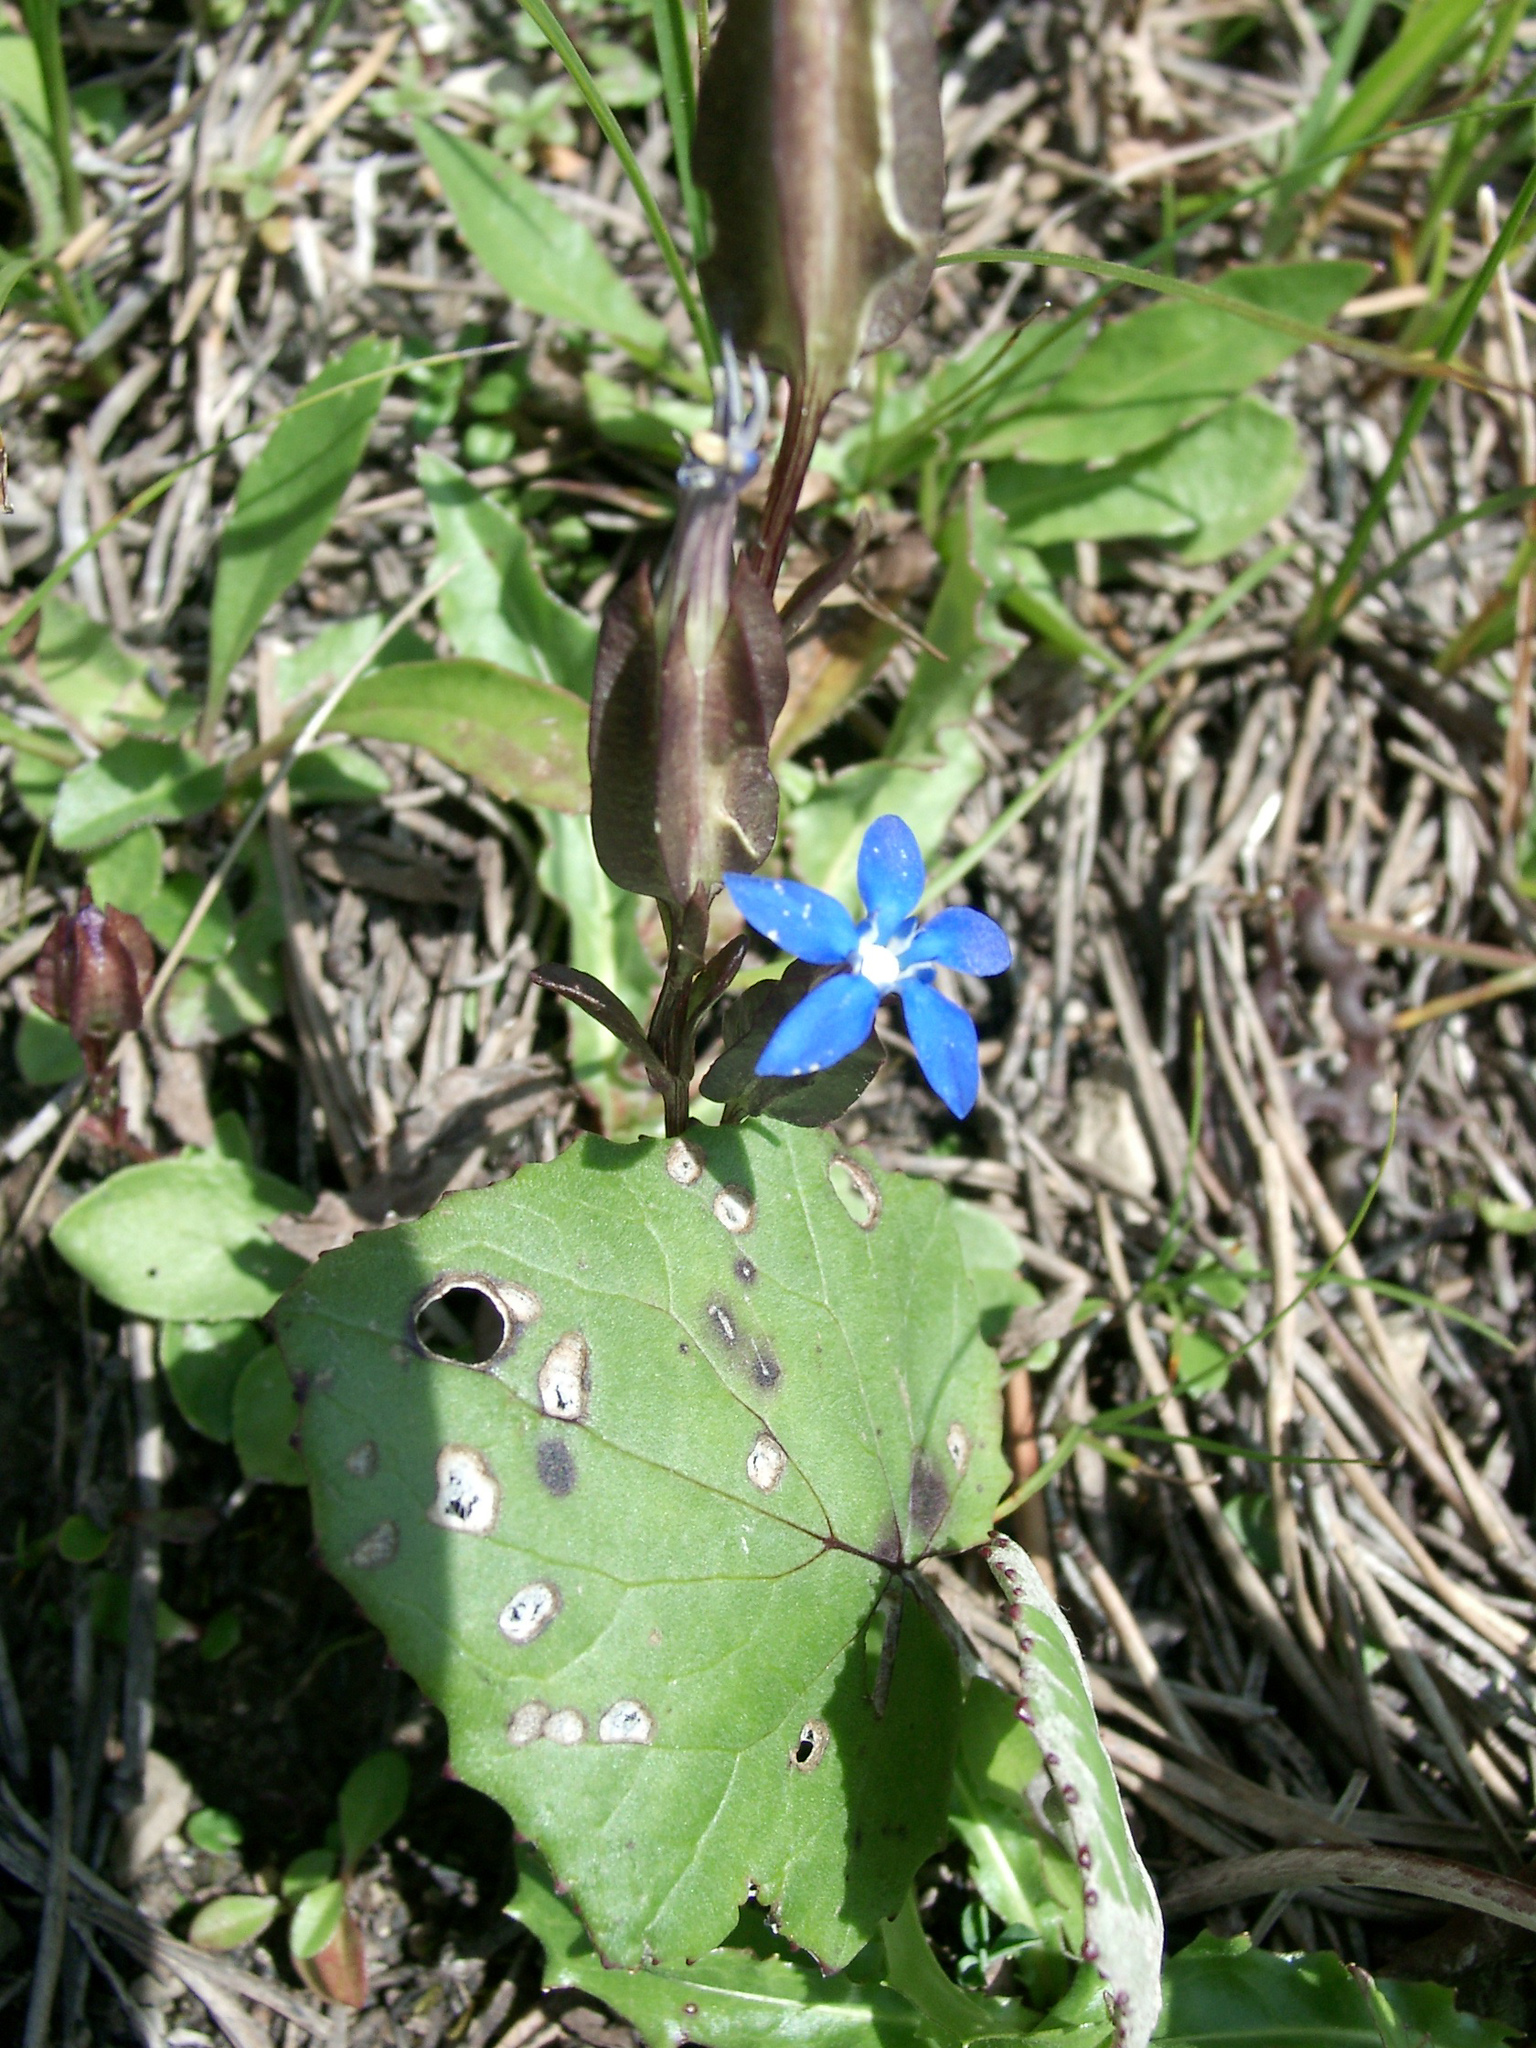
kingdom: Plantae
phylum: Tracheophyta
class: Magnoliopsida
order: Gentianales
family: Gentianaceae
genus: Gentiana
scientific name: Gentiana utriculosa
